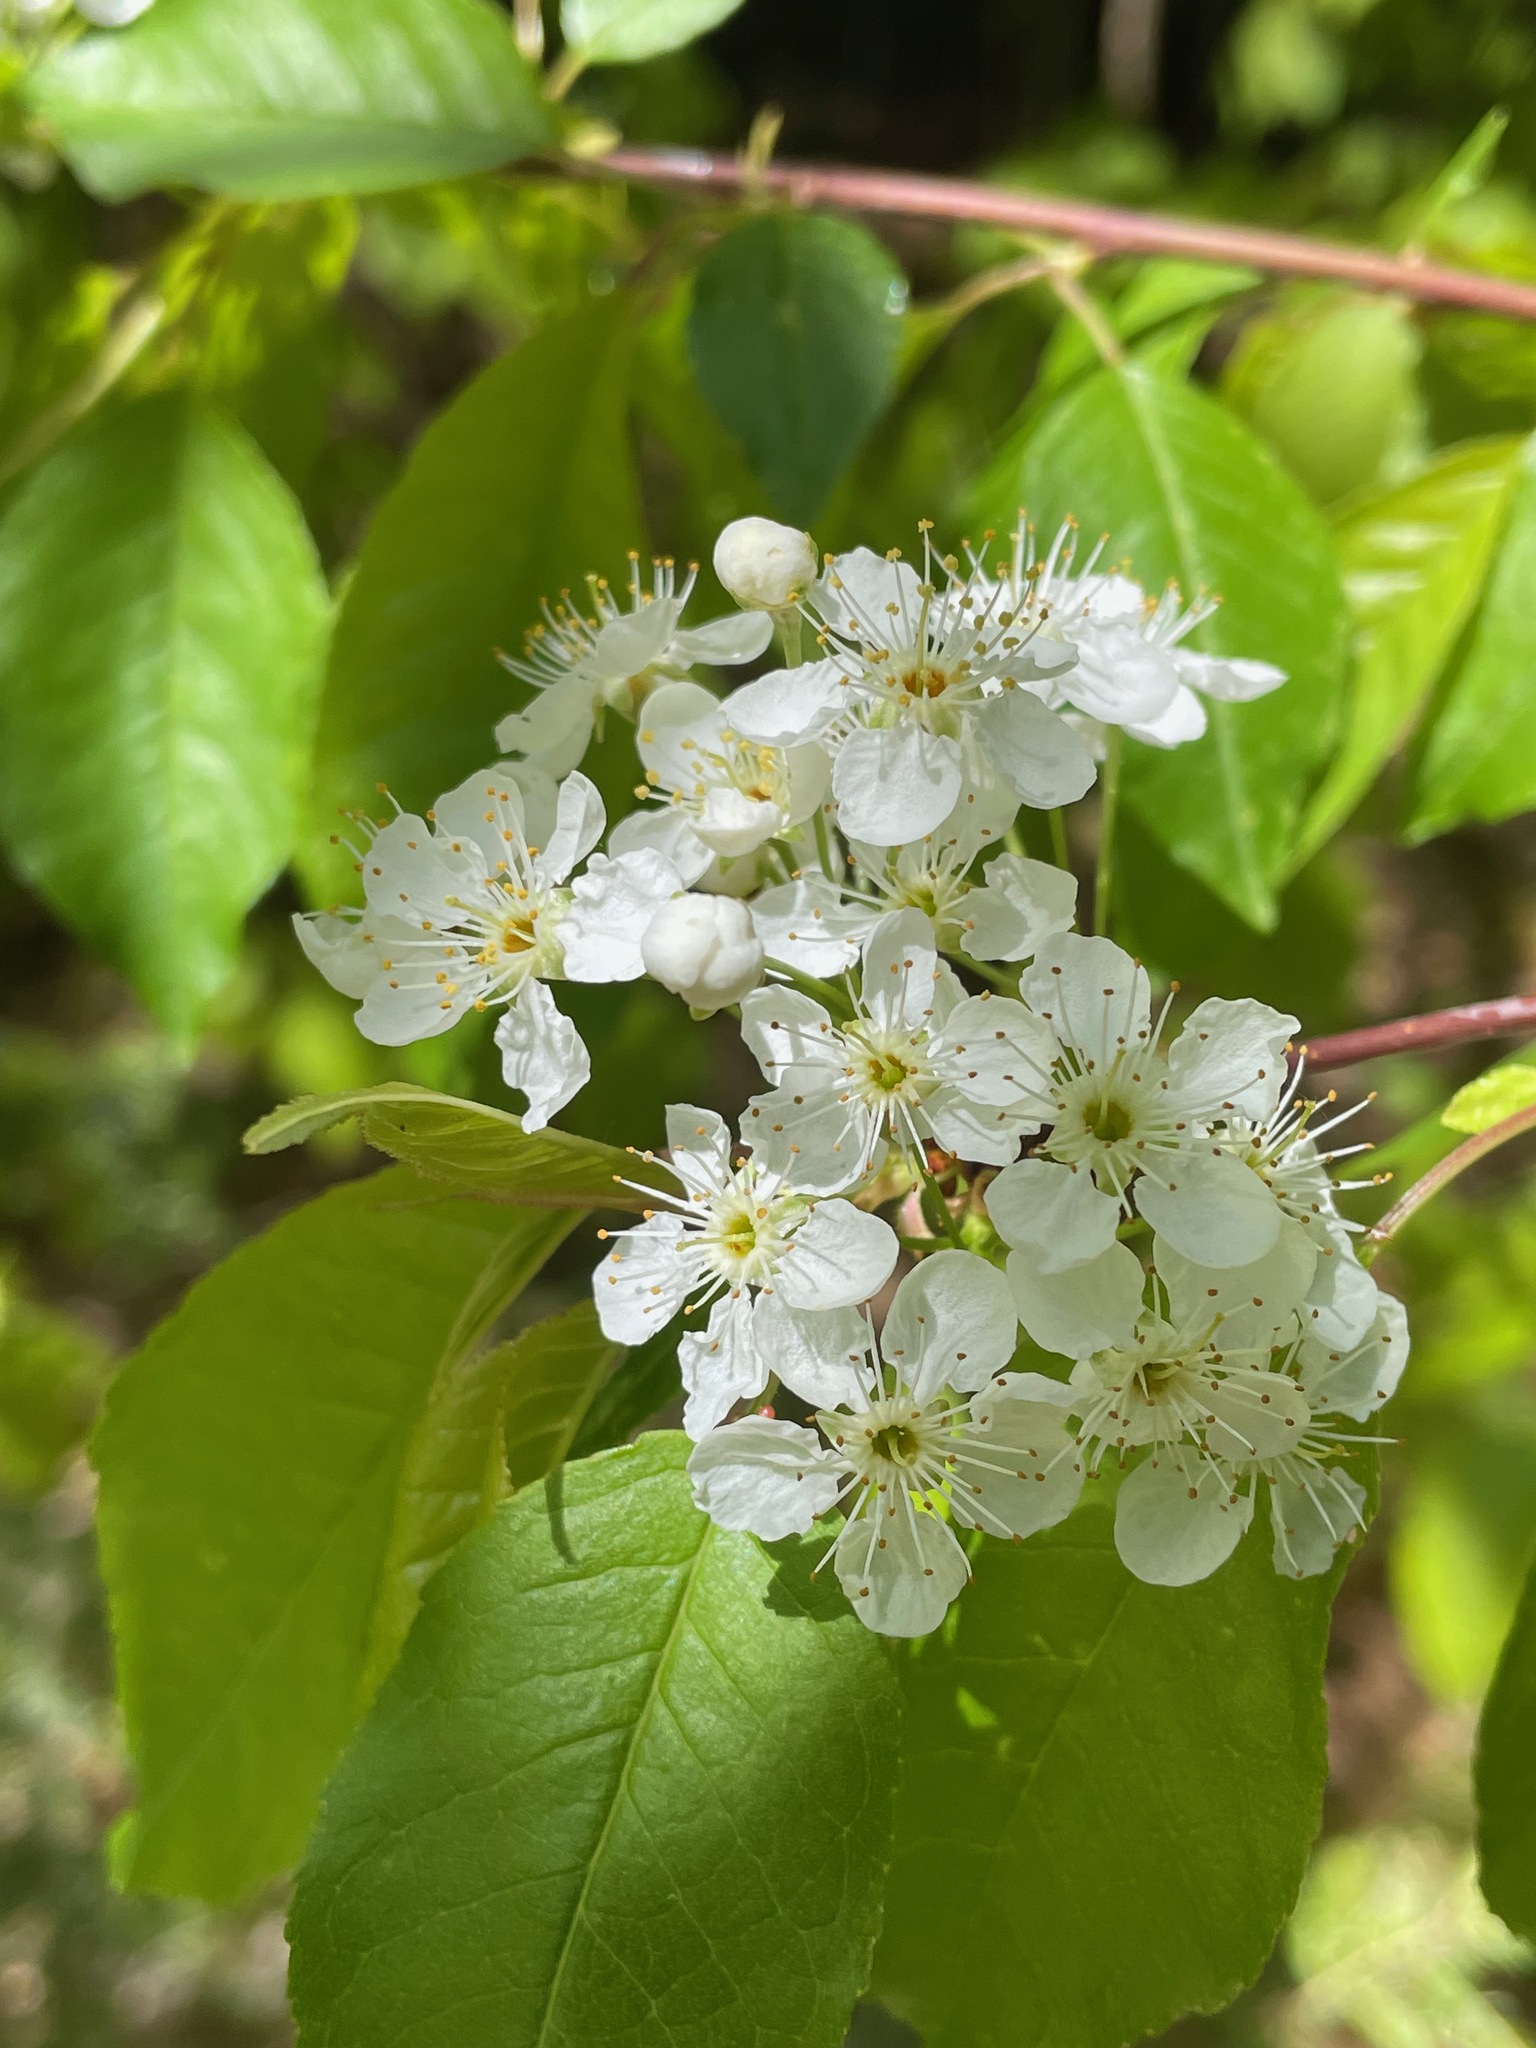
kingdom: Plantae
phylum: Tracheophyta
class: Magnoliopsida
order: Rosales
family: Rosaceae
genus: Prunus
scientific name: Prunus pensylvanica
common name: Pin cherry
